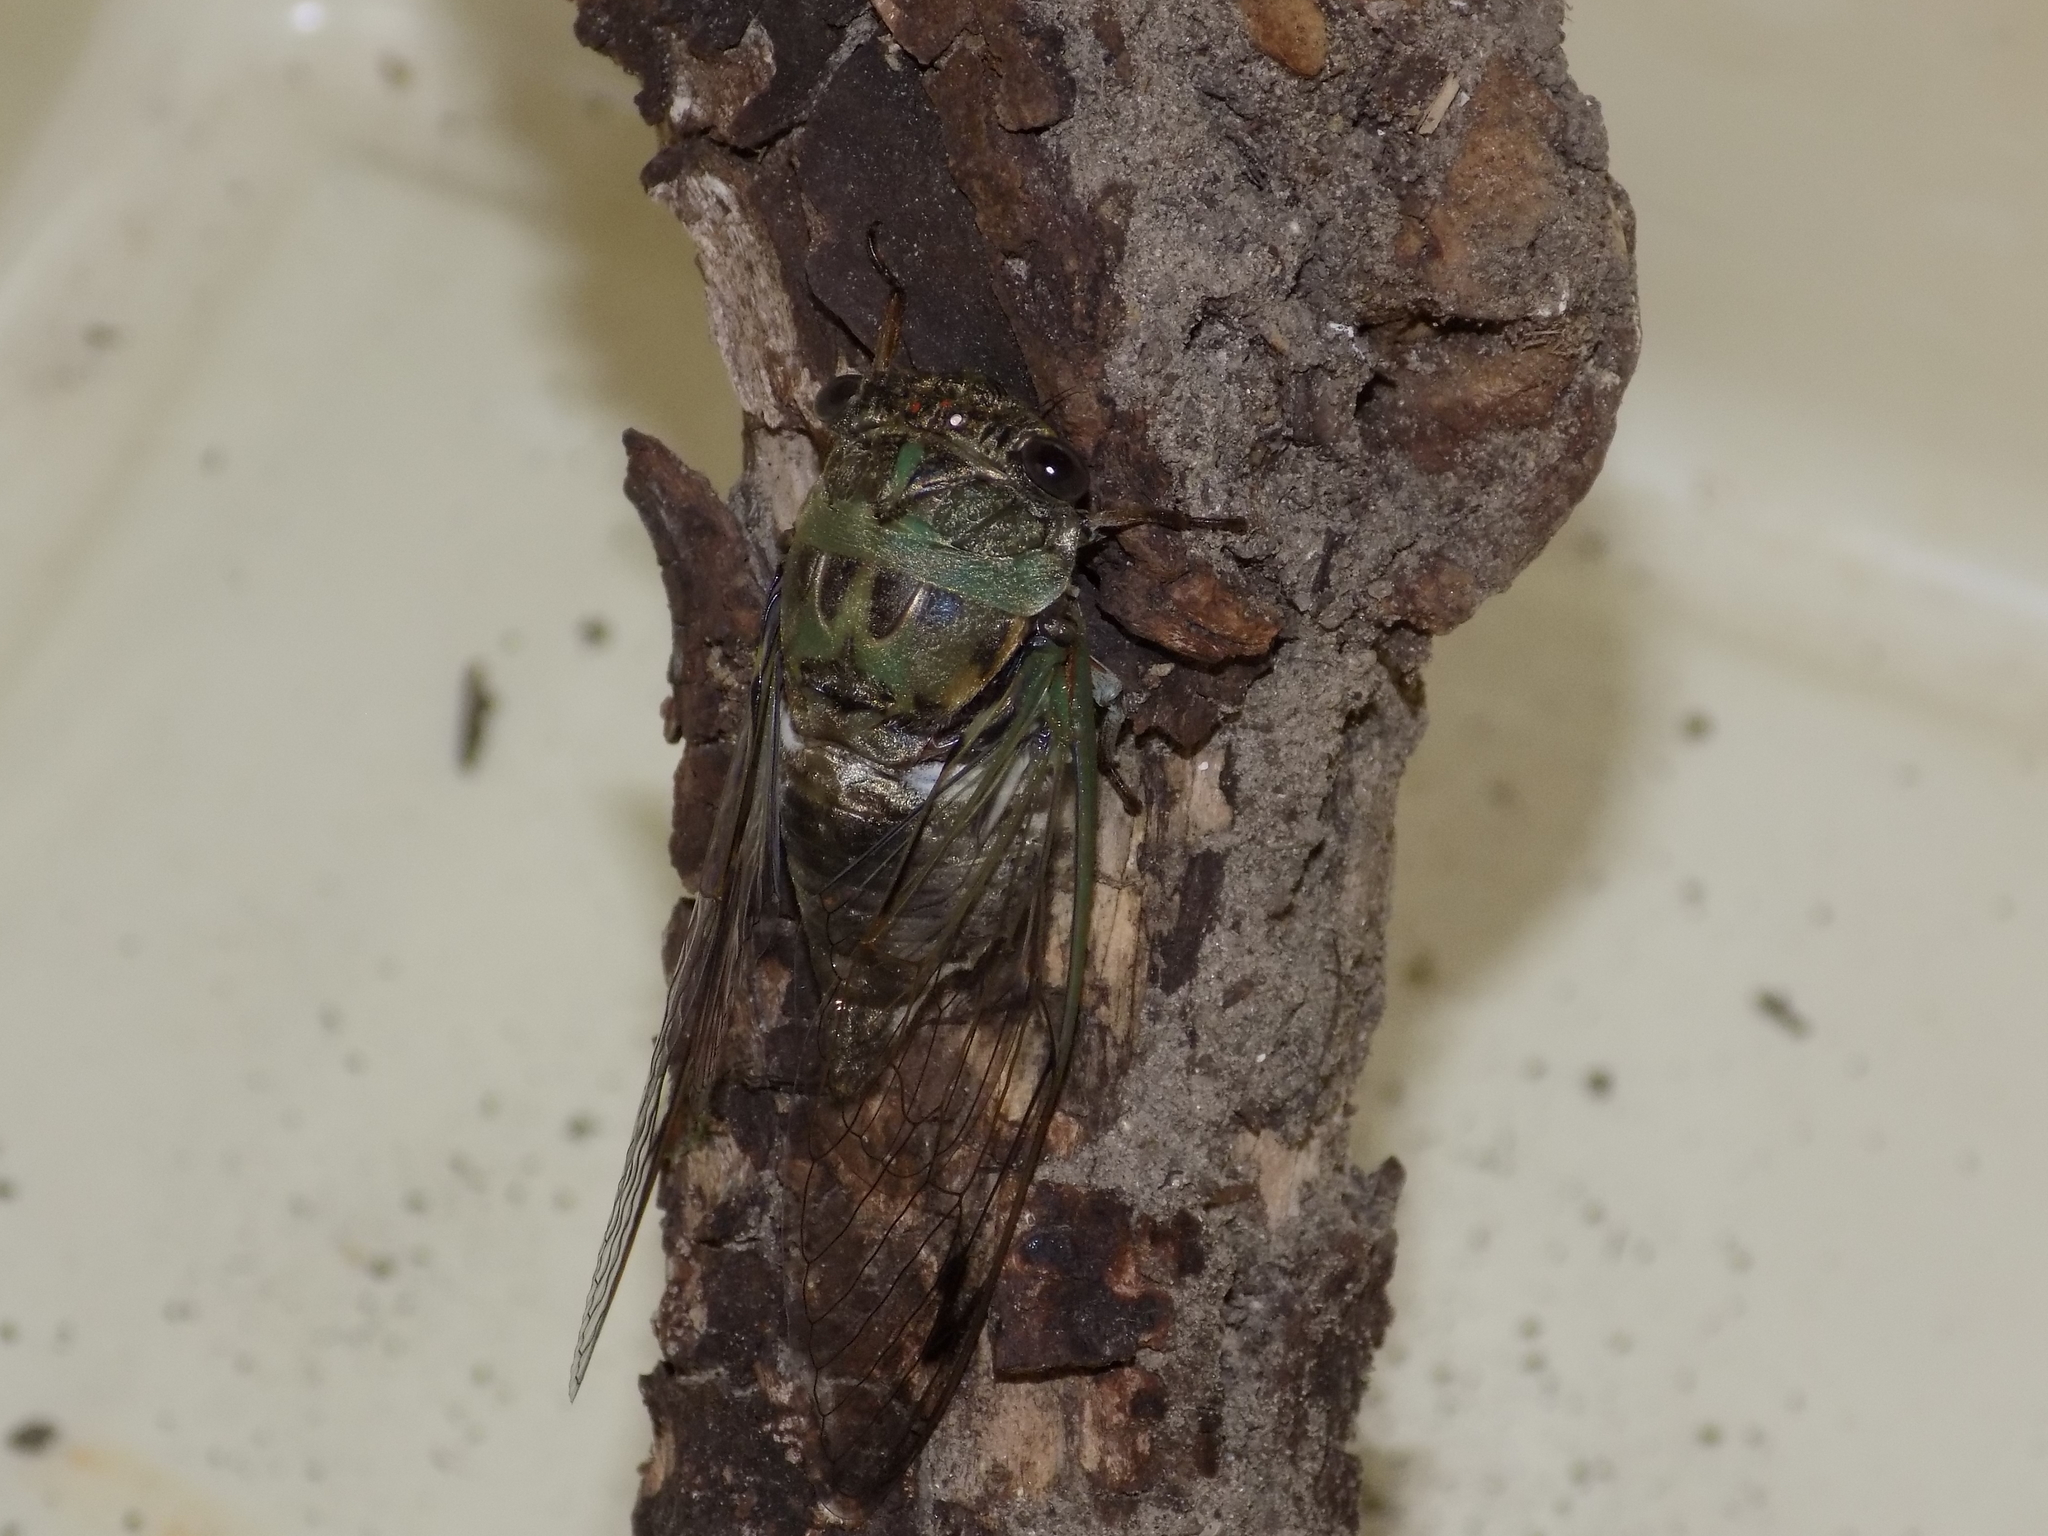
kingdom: Animalia
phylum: Arthropoda
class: Insecta
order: Hemiptera
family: Cicadidae
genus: Neotibicen
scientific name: Neotibicen pruinosus
